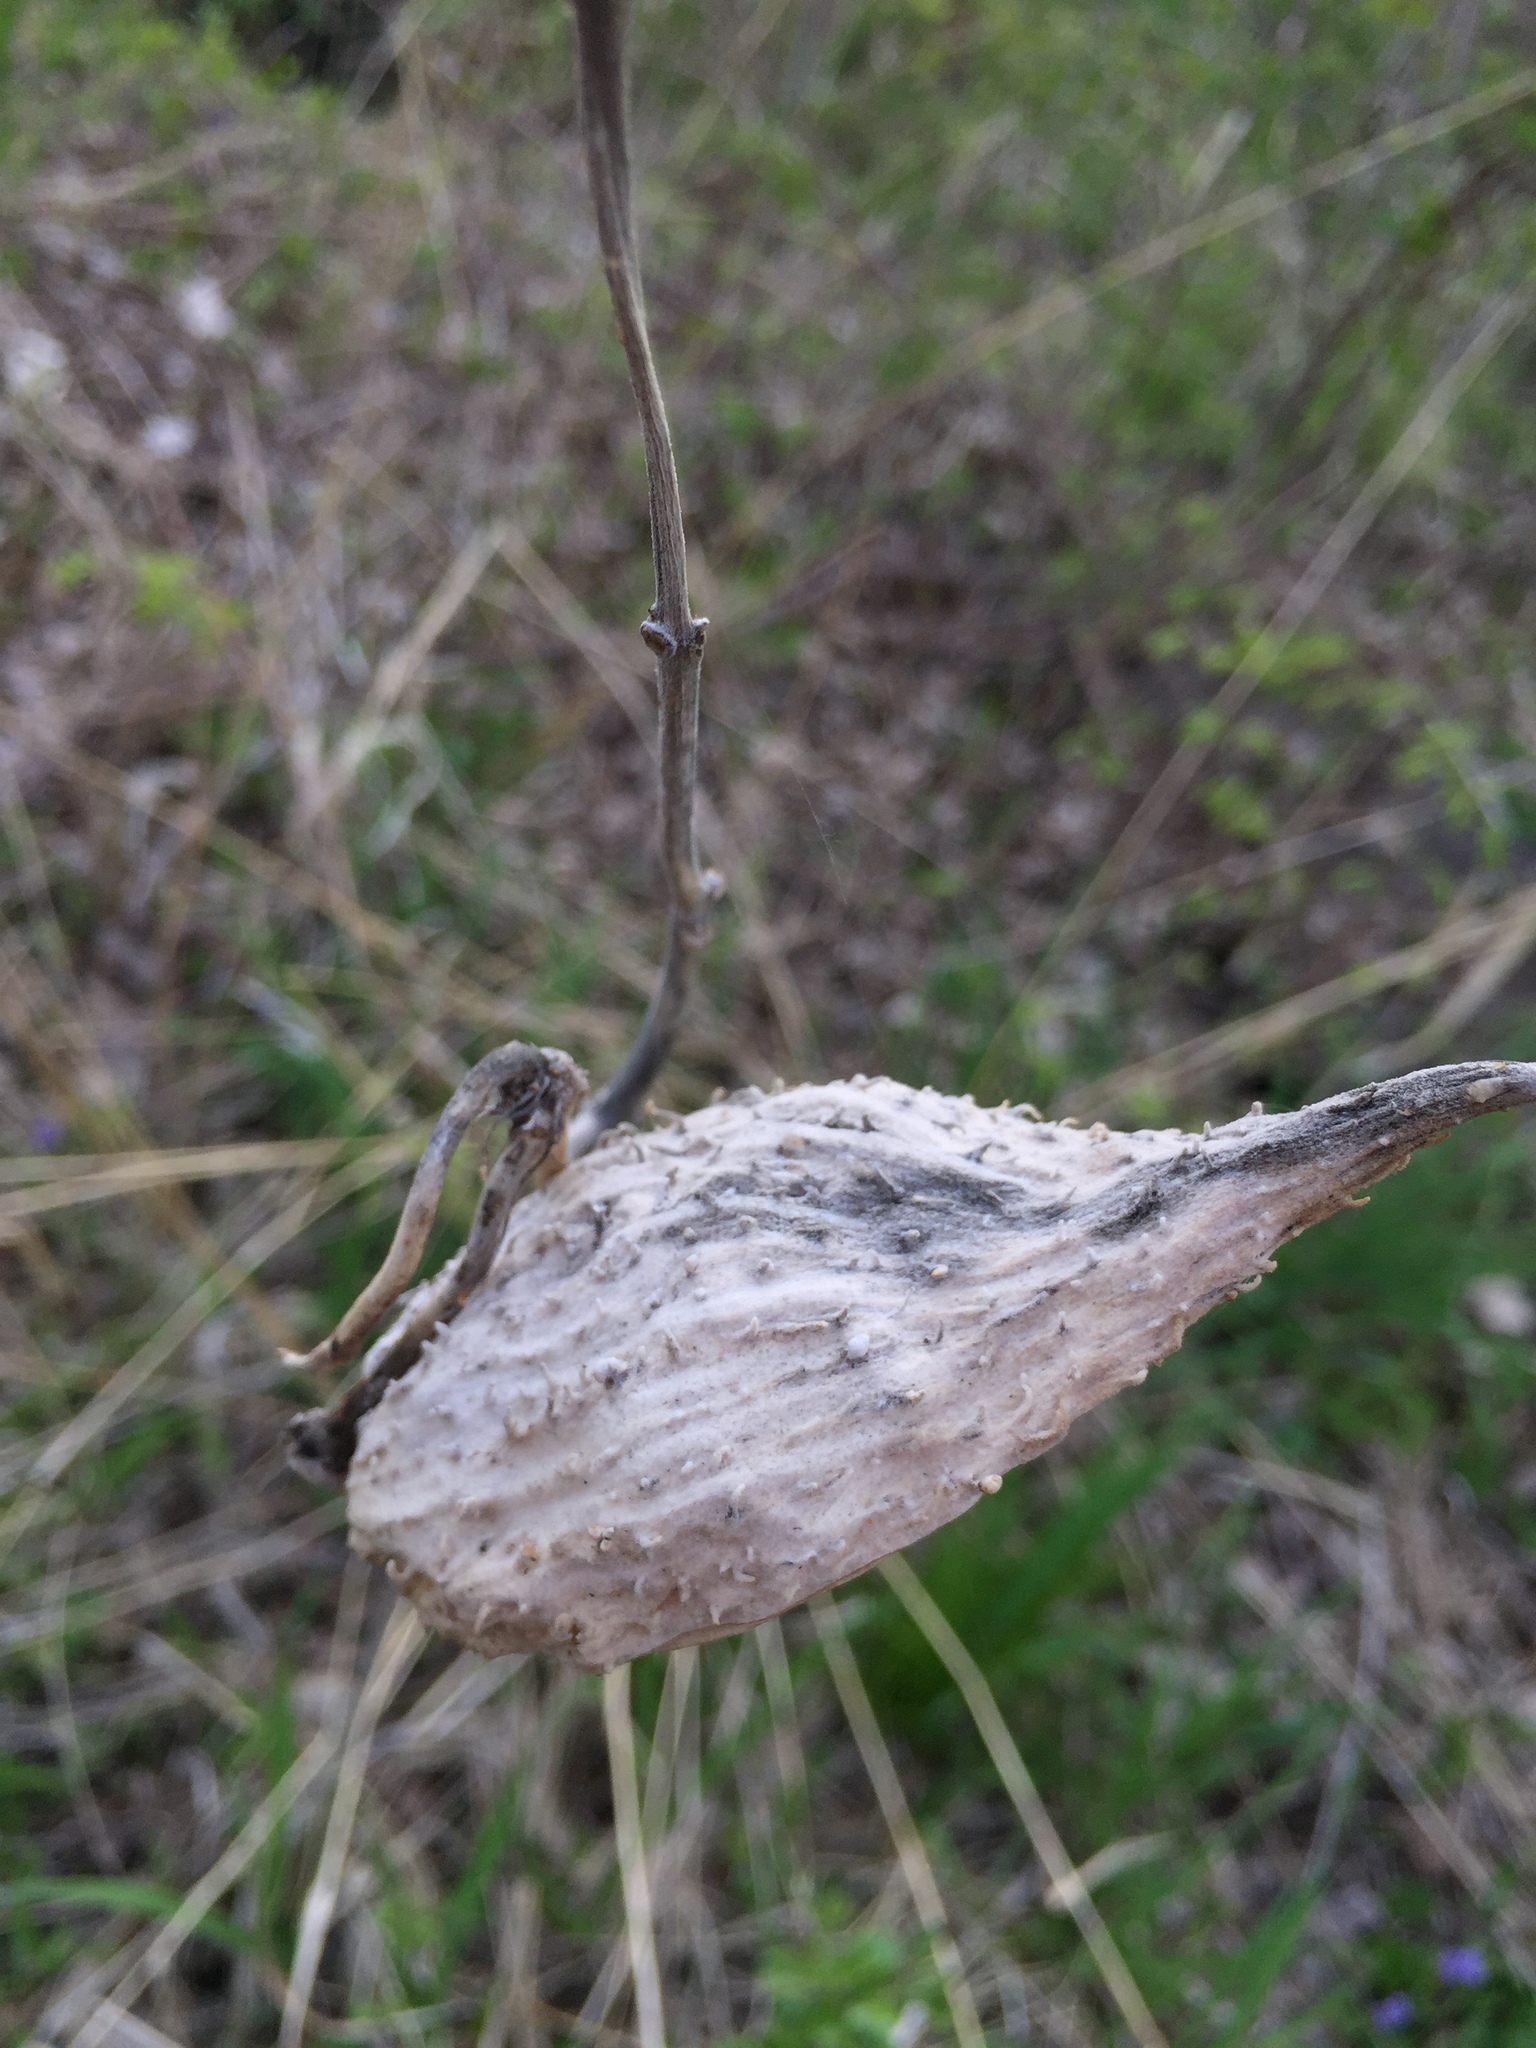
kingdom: Plantae
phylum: Tracheophyta
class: Magnoliopsida
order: Gentianales
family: Apocynaceae
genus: Asclepias
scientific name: Asclepias syriaca
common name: Common milkweed
